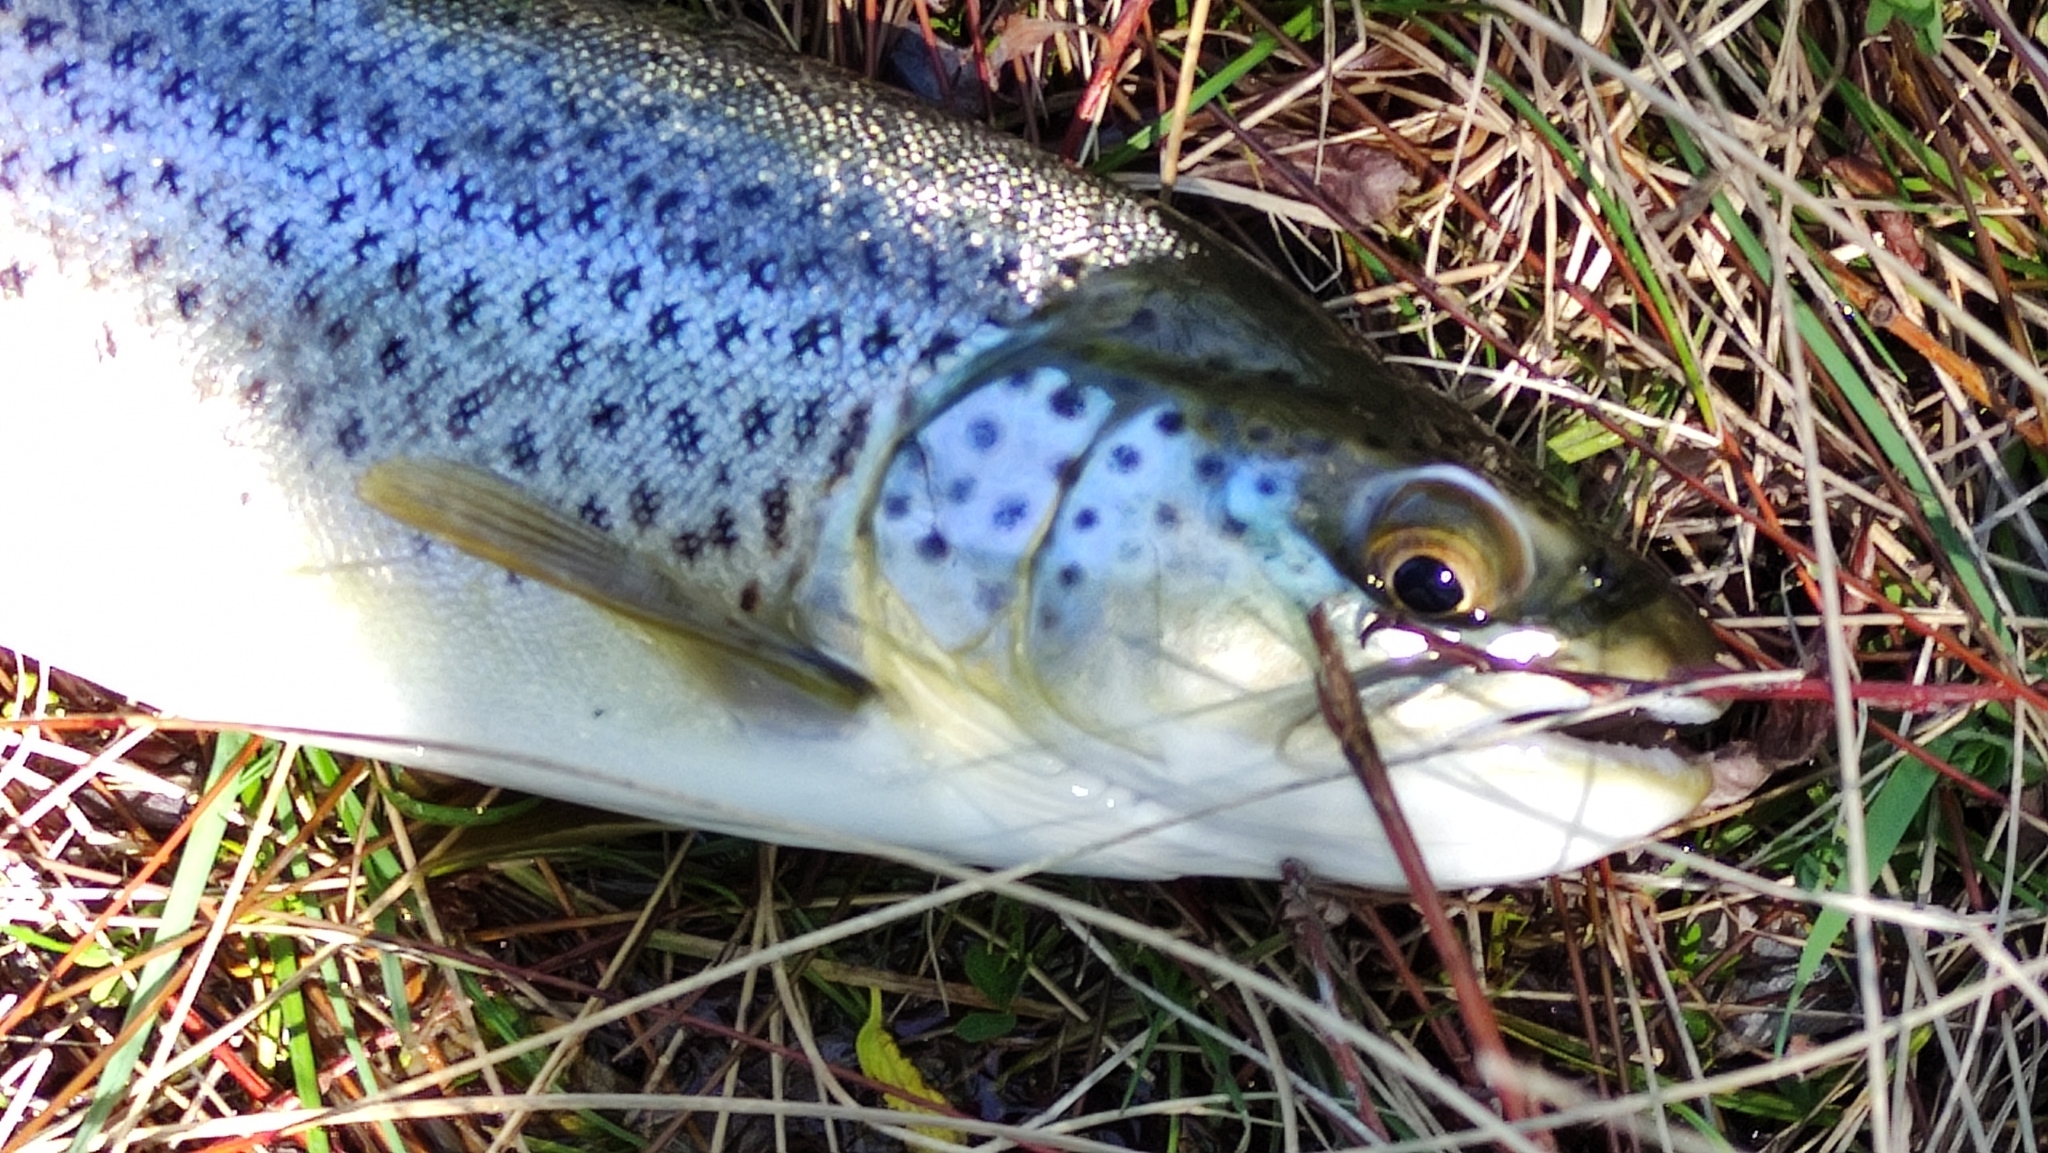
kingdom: Animalia
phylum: Chordata
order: Salmoniformes
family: Salmonidae
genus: Salmo
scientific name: Salmo trutta
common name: Brown trout
